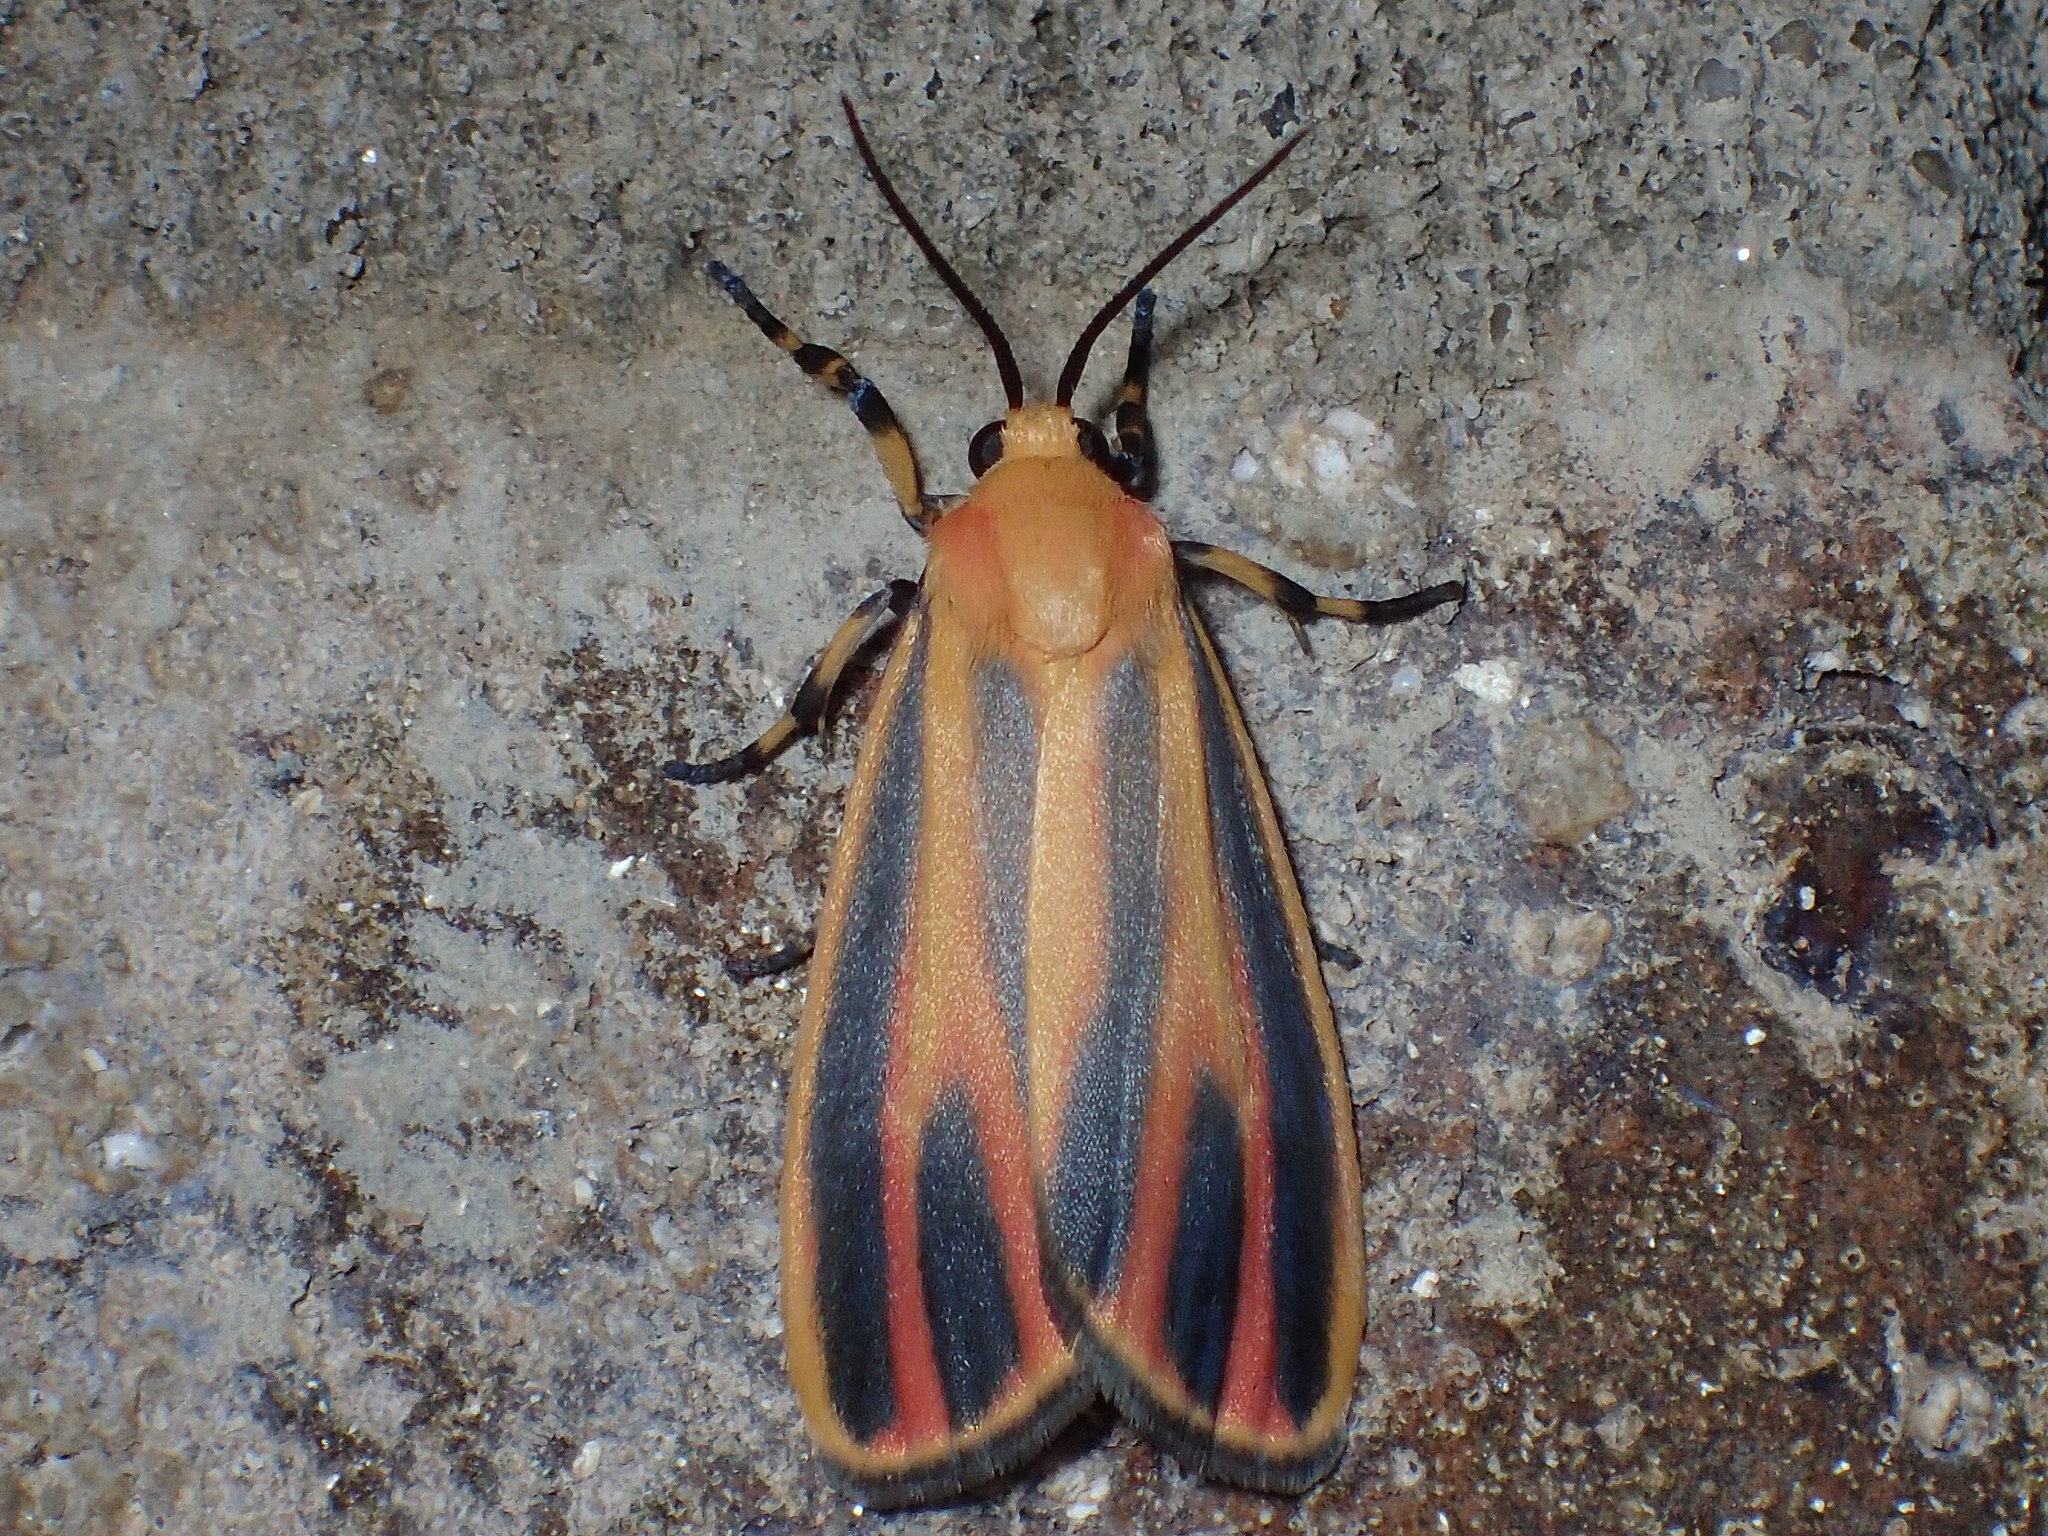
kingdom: Animalia
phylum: Arthropoda
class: Insecta
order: Lepidoptera
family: Erebidae
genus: Hypoprepia
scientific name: Hypoprepia fucosa
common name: Painted lichen moth
